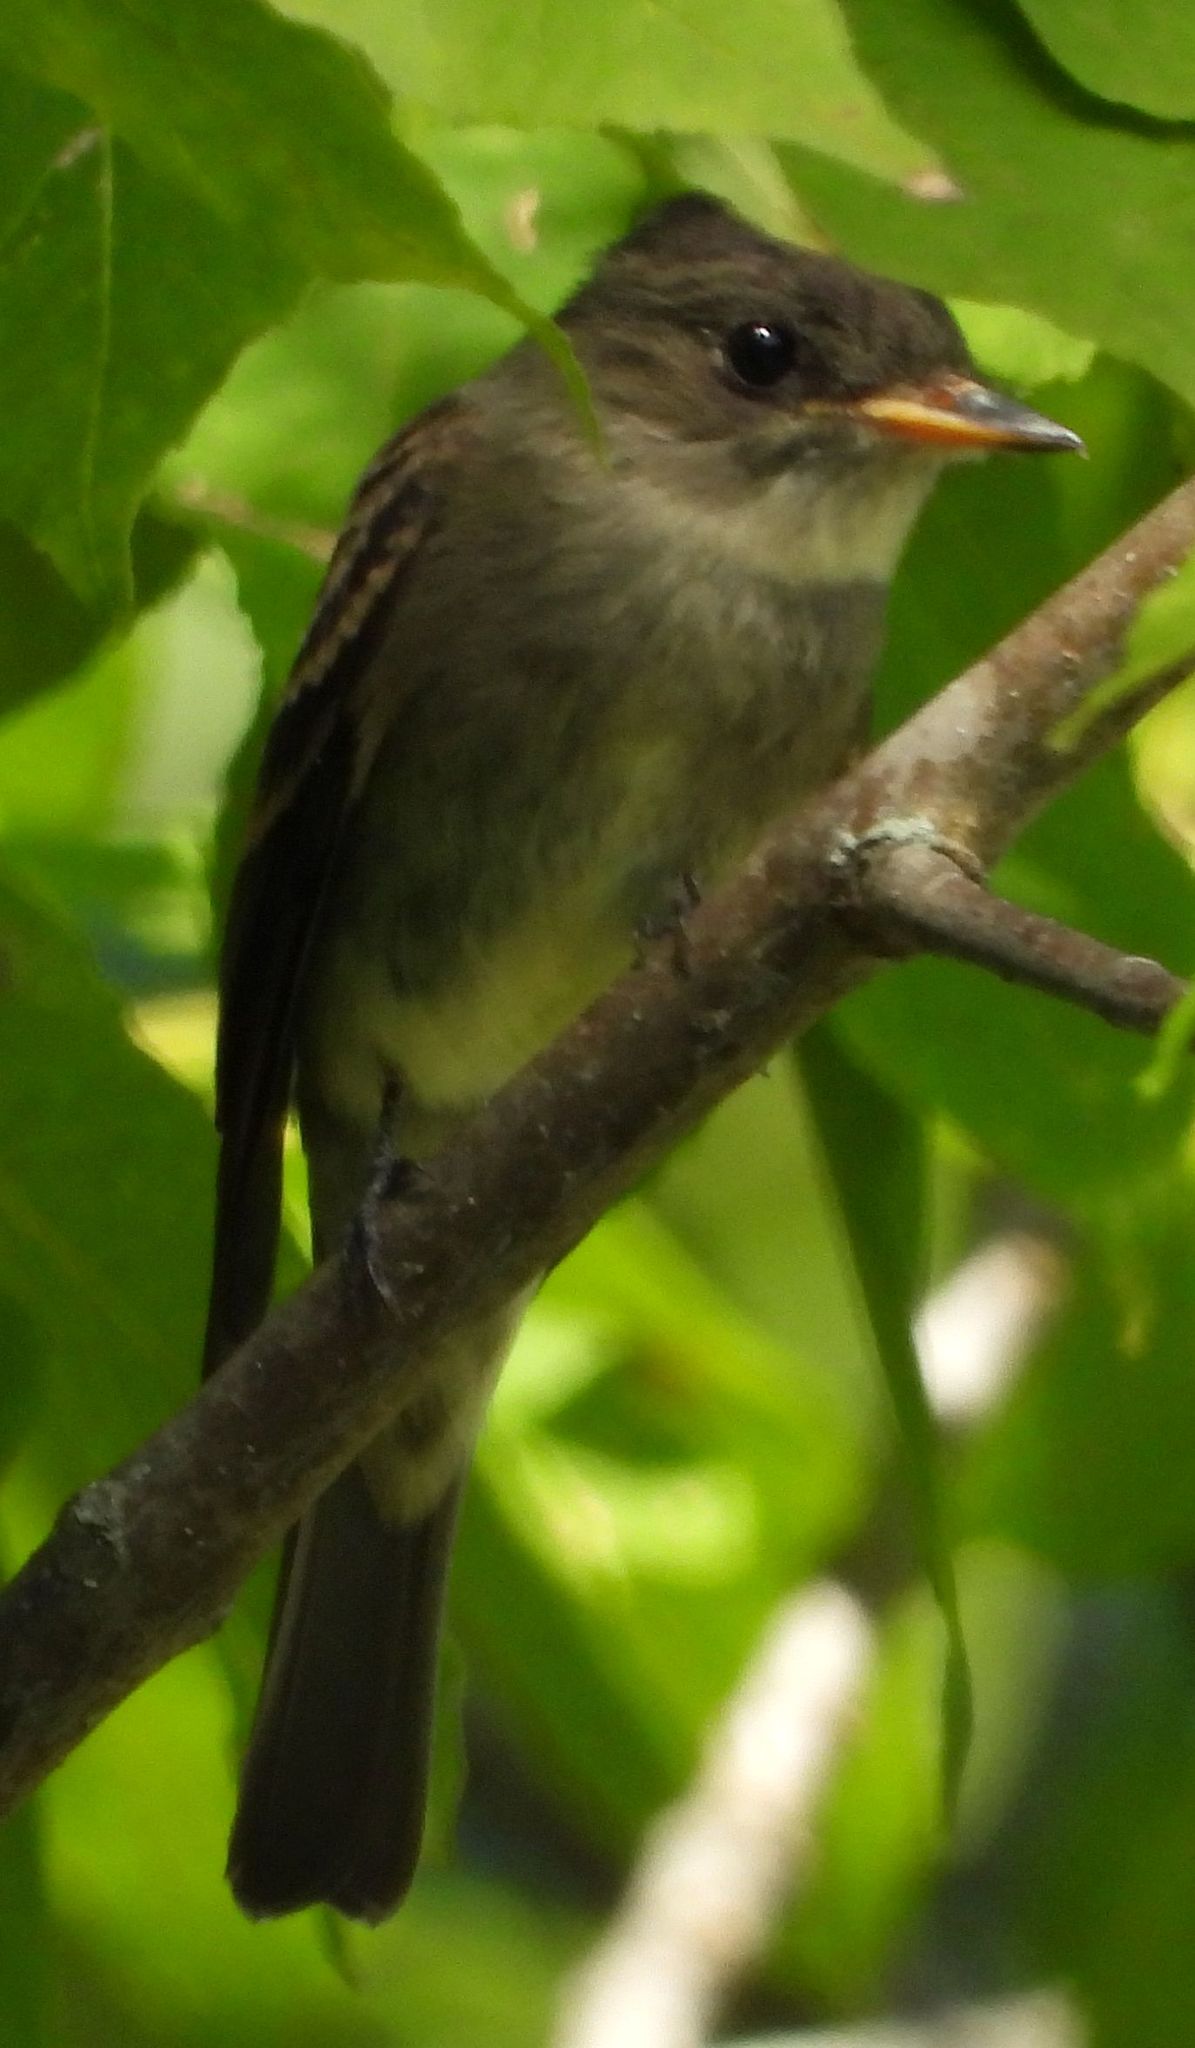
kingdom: Animalia
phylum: Chordata
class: Aves
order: Passeriformes
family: Tyrannidae
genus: Contopus
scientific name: Contopus virens
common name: Eastern wood-pewee
